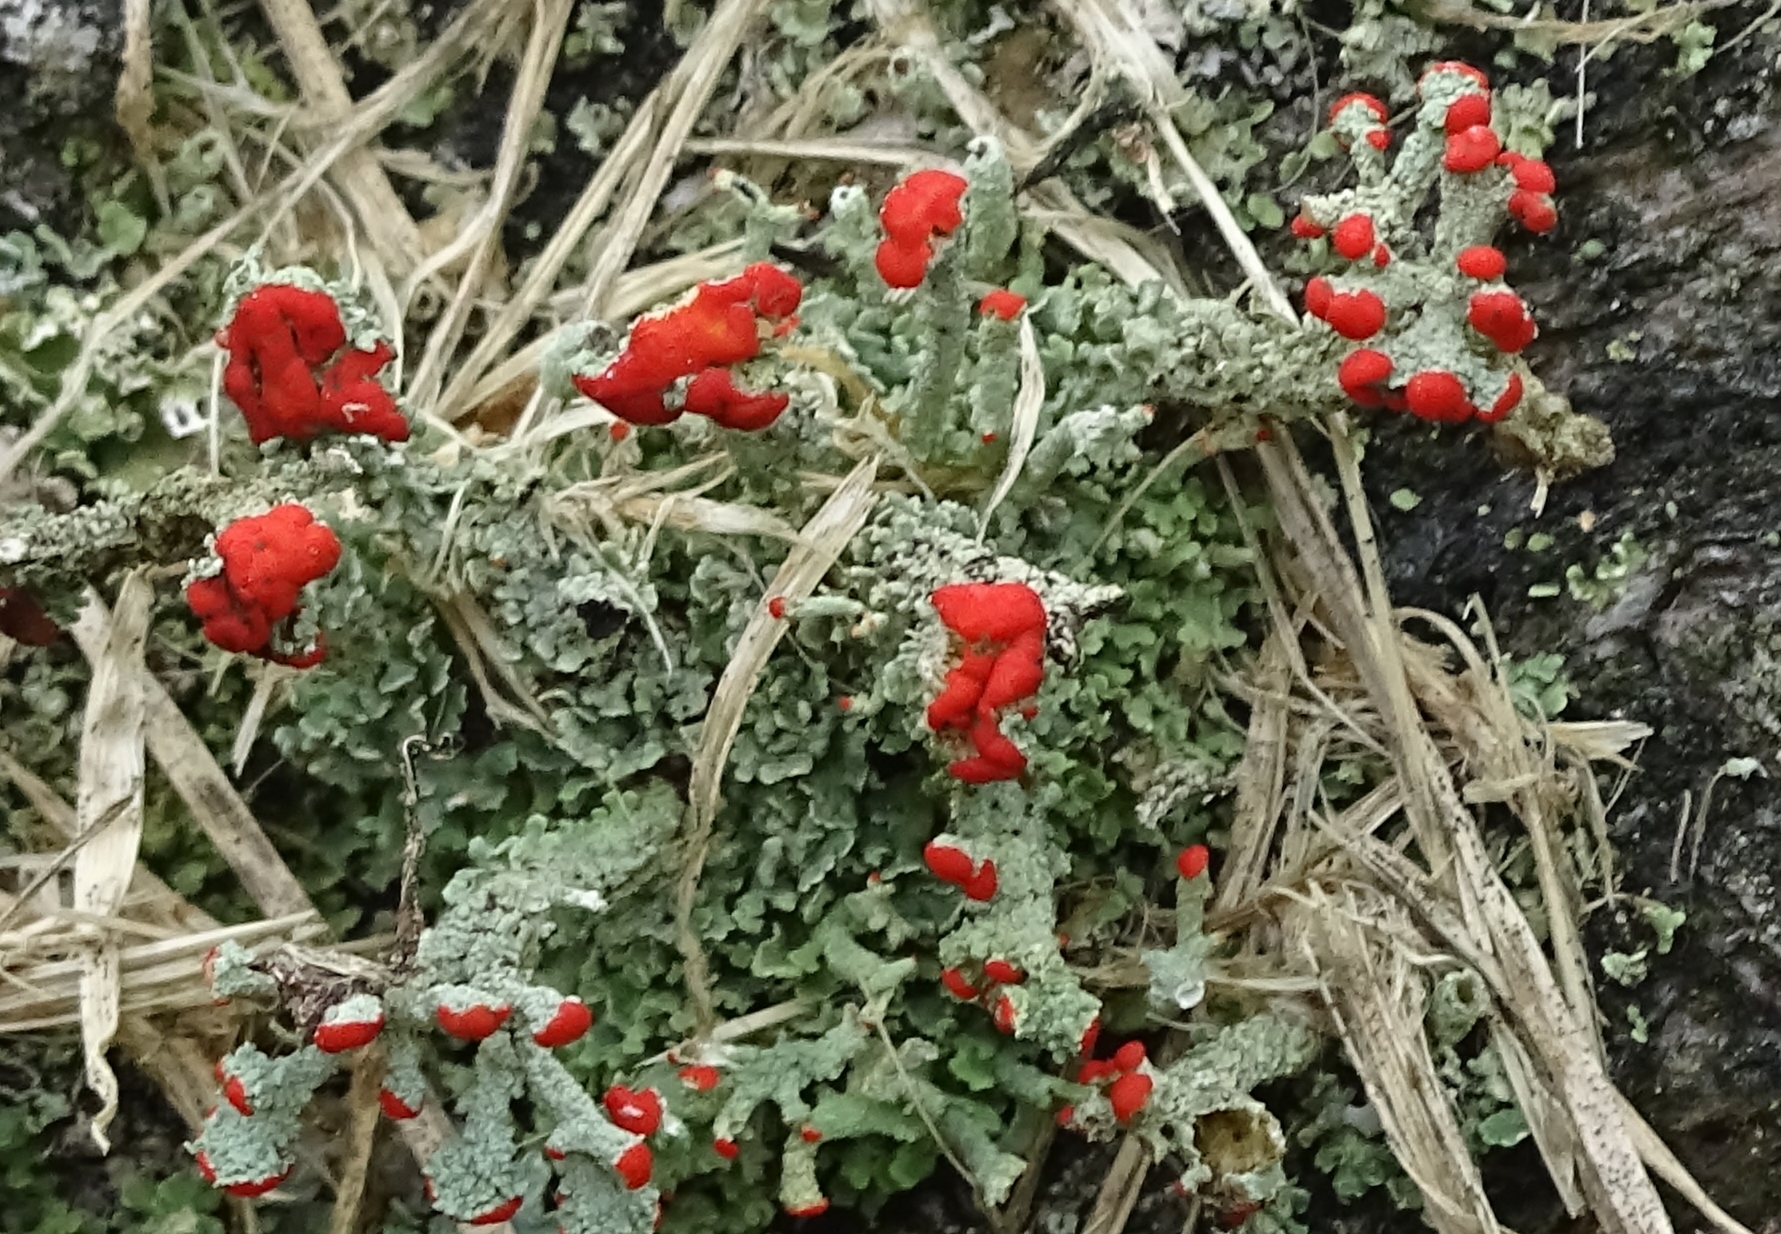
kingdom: Fungi
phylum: Ascomycota
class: Lecanoromycetes
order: Lecanorales
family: Cladoniaceae
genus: Cladonia
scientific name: Cladonia cristatella
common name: British soldier lichen
